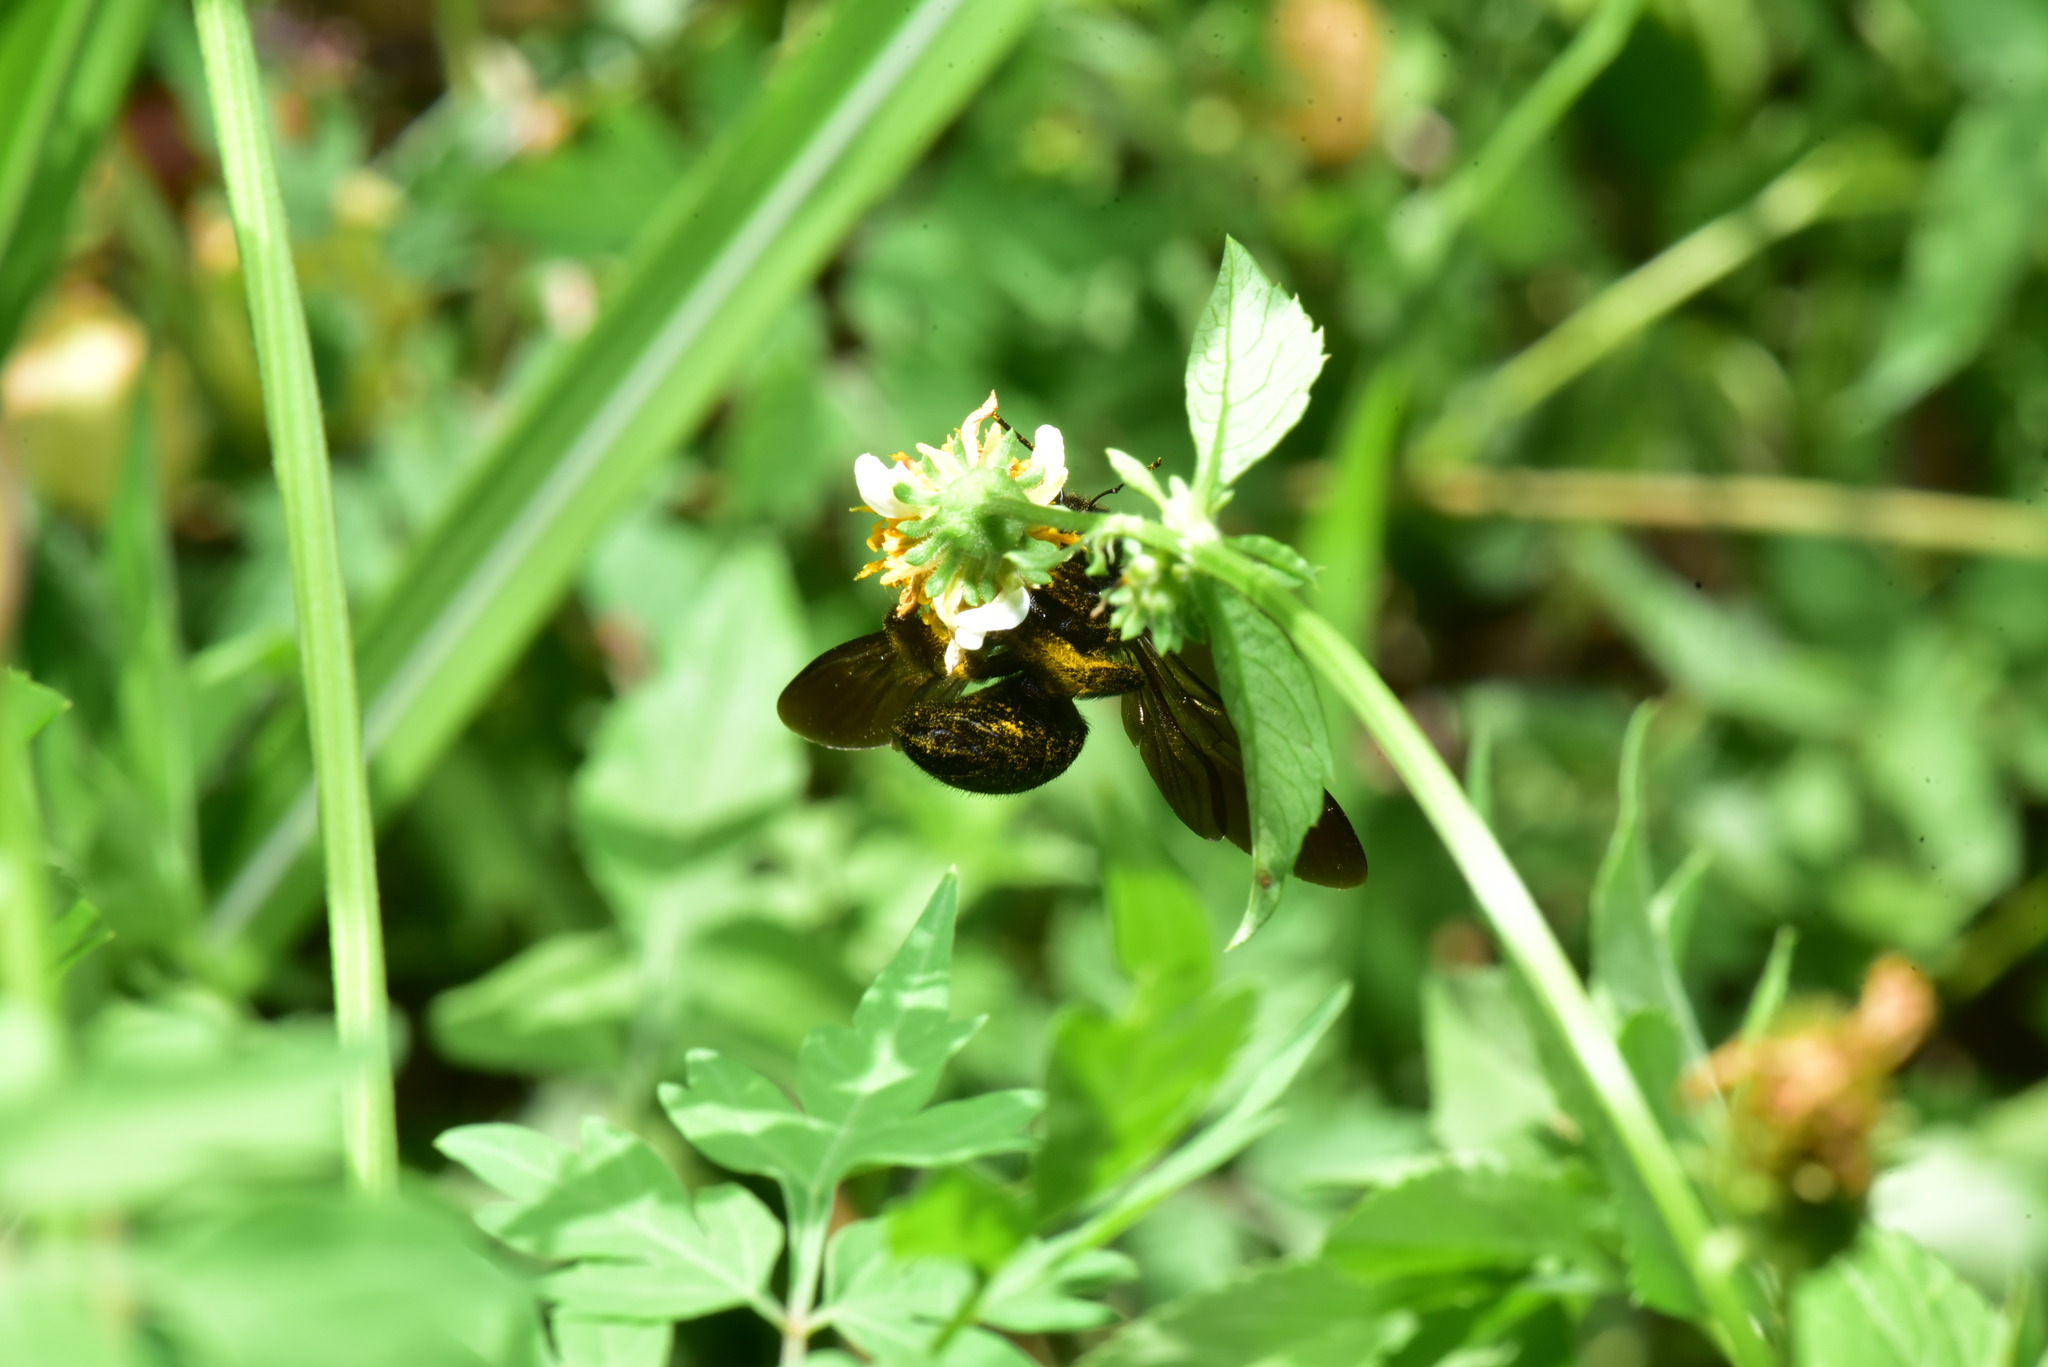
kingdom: Animalia
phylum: Arthropoda
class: Insecta
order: Hymenoptera
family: Apidae
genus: Xylocopa
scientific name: Xylocopa tranquebarorum
